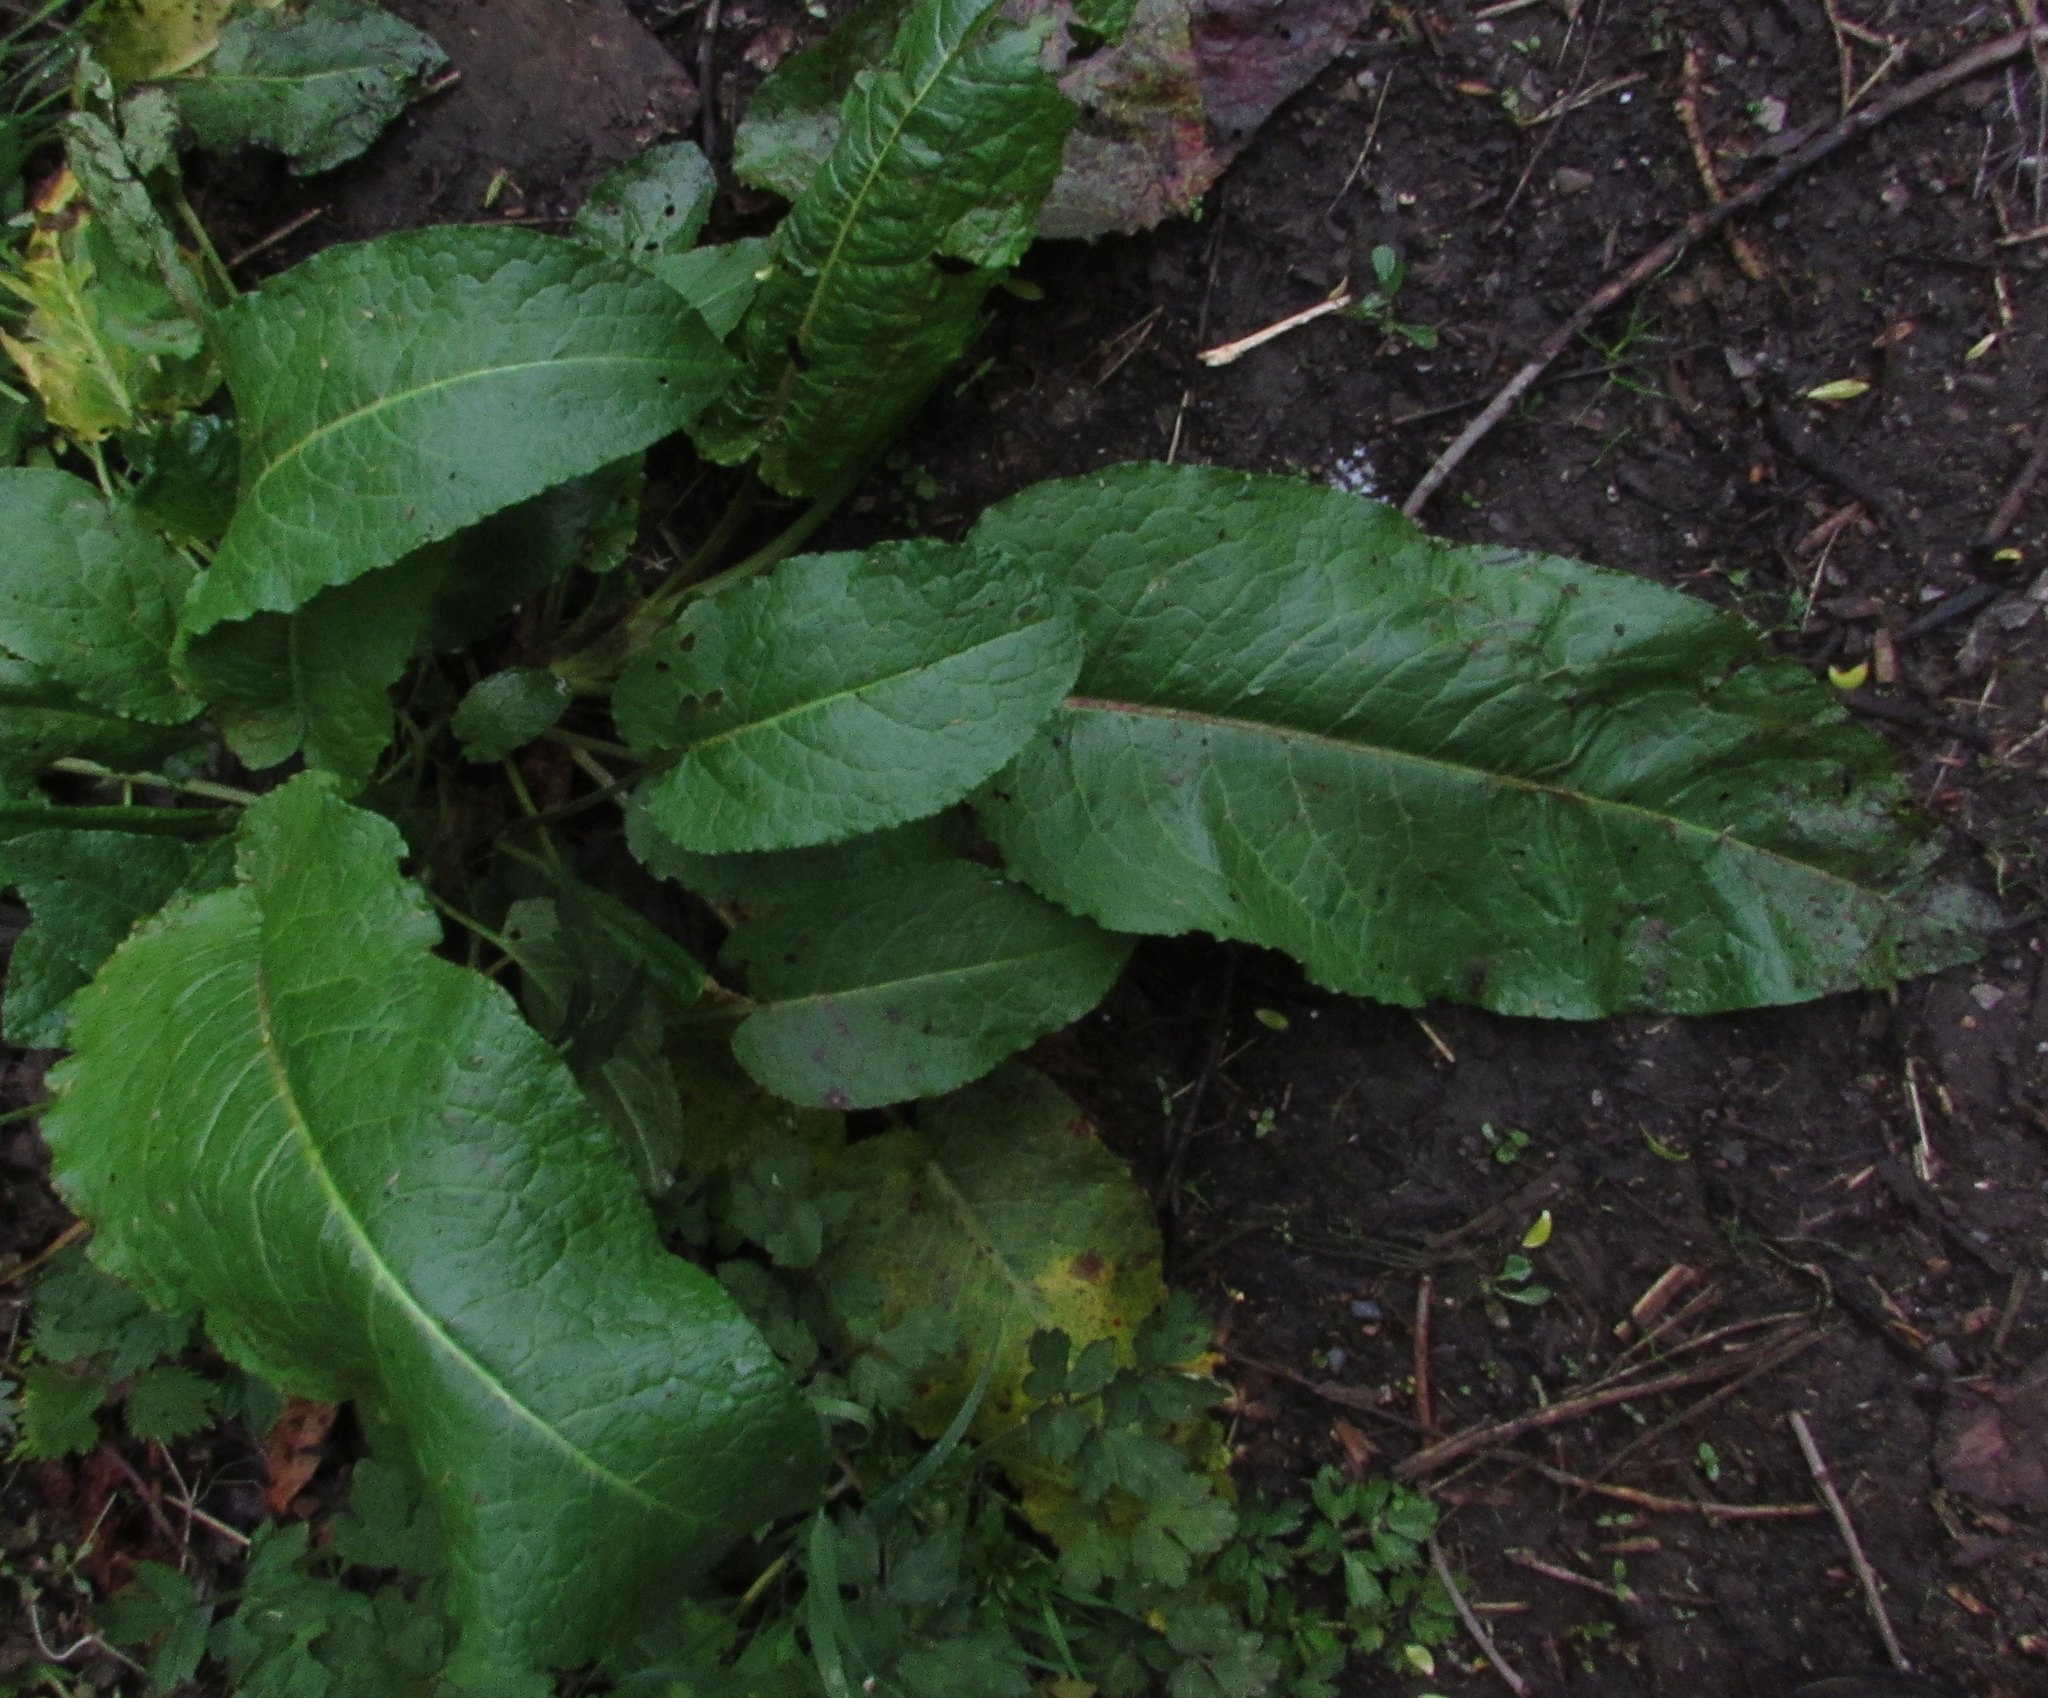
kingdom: Plantae
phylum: Tracheophyta
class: Magnoliopsida
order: Caryophyllales
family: Polygonaceae
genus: Rumex
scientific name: Rumex obtusifolius
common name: Bitter dock
